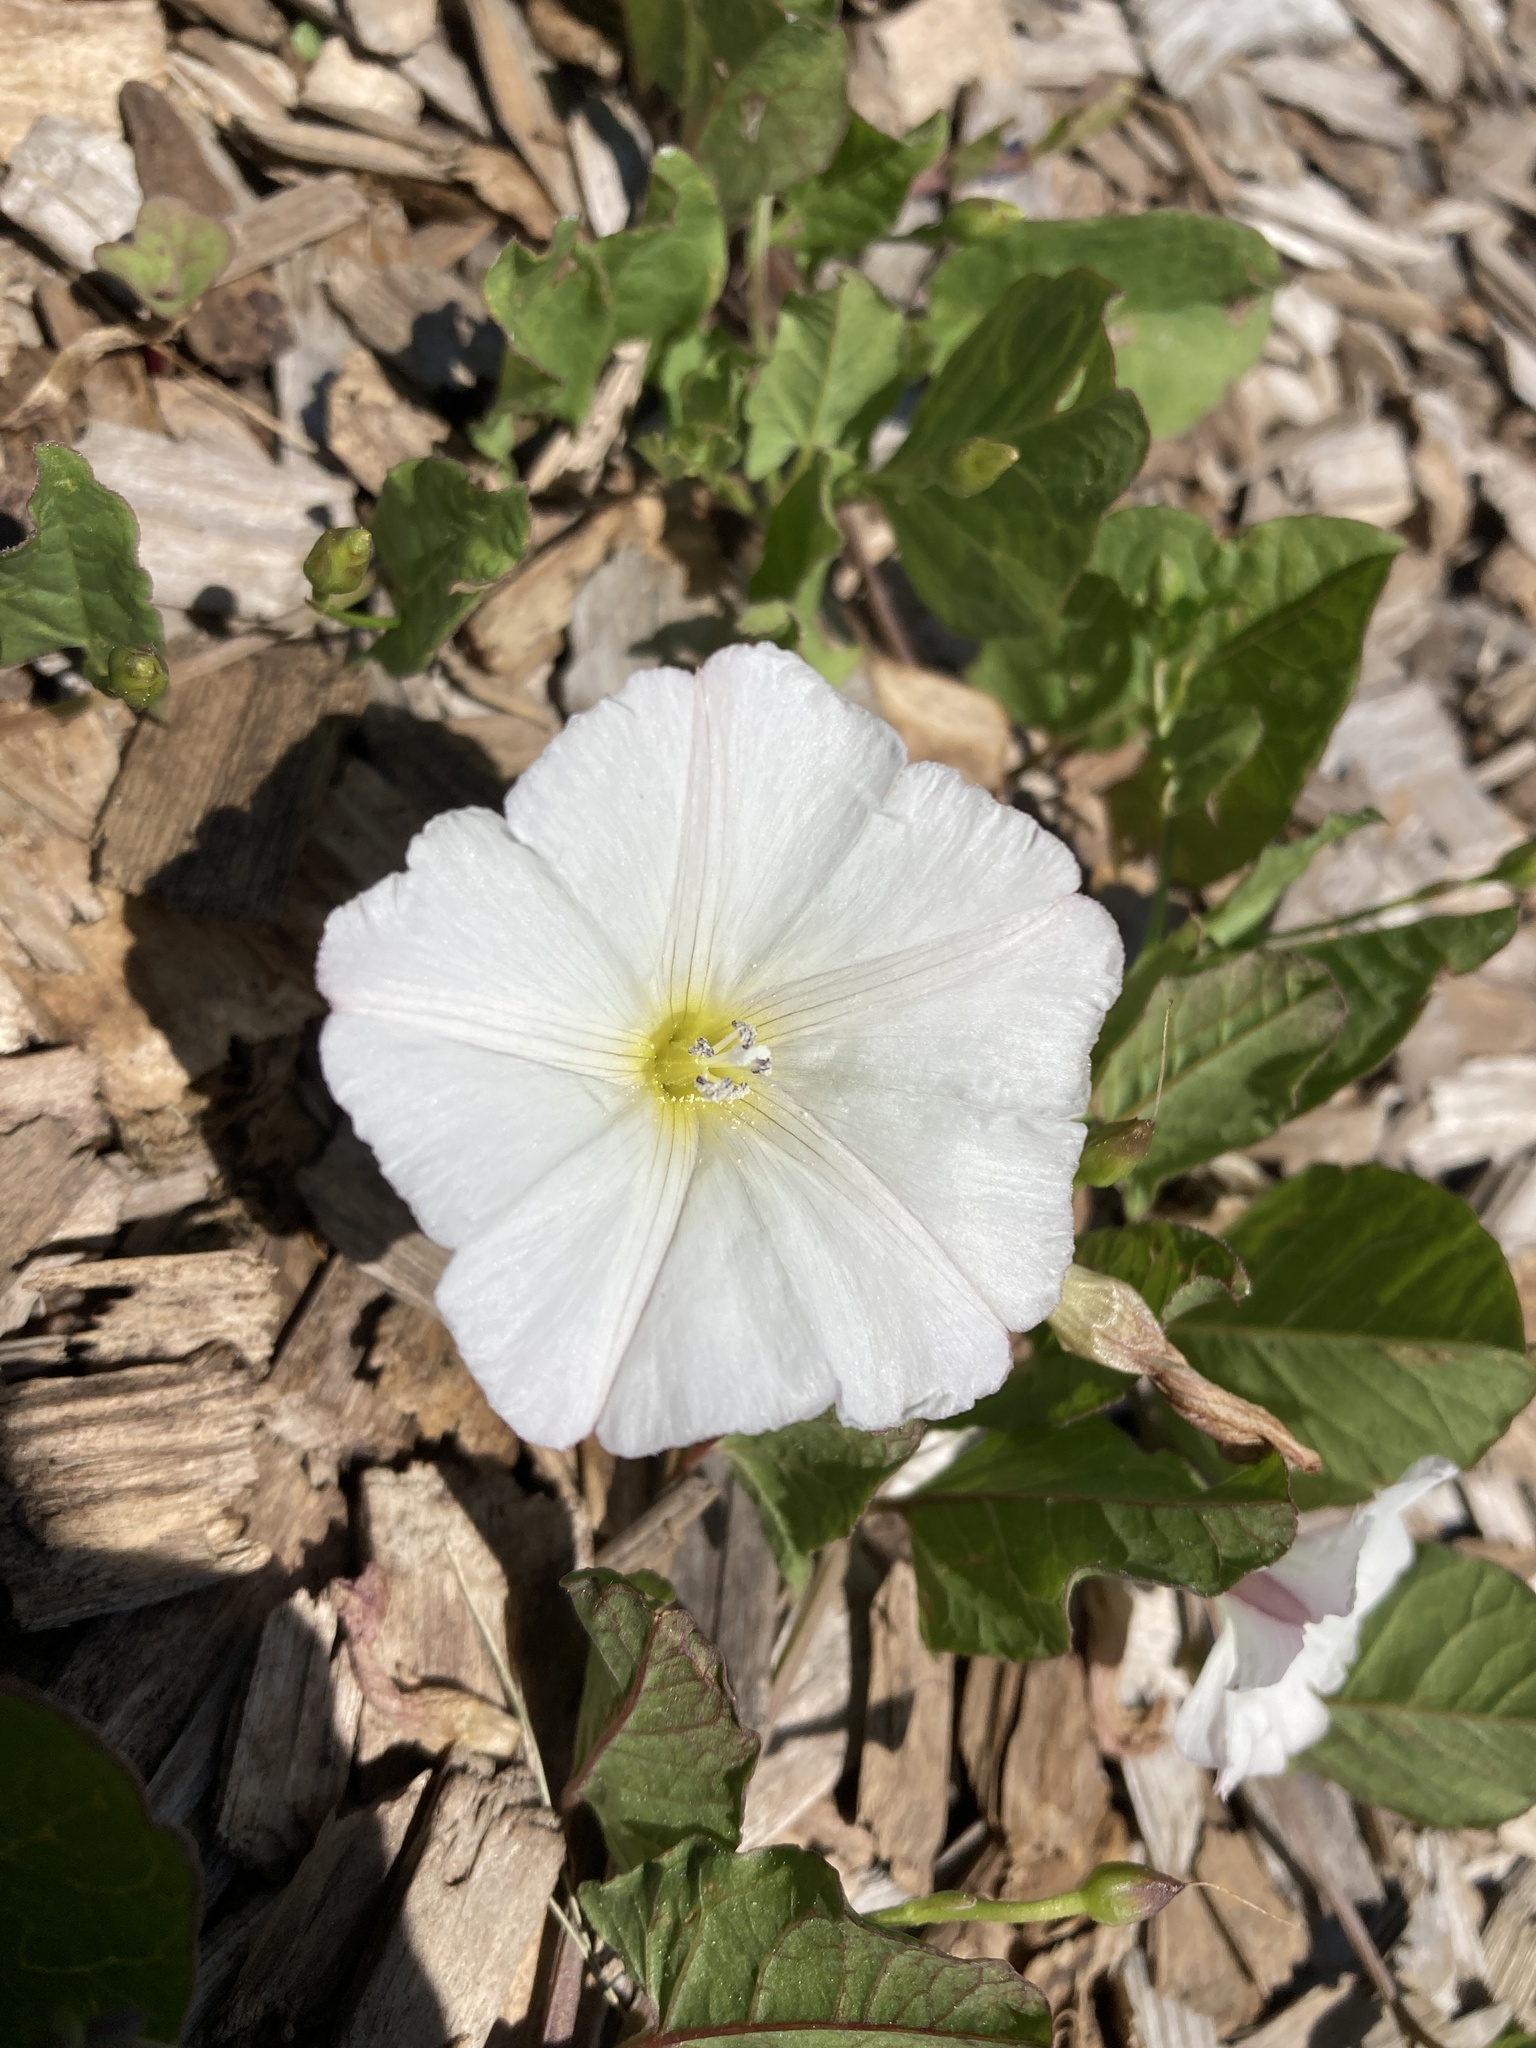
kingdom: Plantae
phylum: Tracheophyta
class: Magnoliopsida
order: Solanales
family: Convolvulaceae
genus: Convolvulus
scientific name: Convolvulus arvensis
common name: Field bindweed
